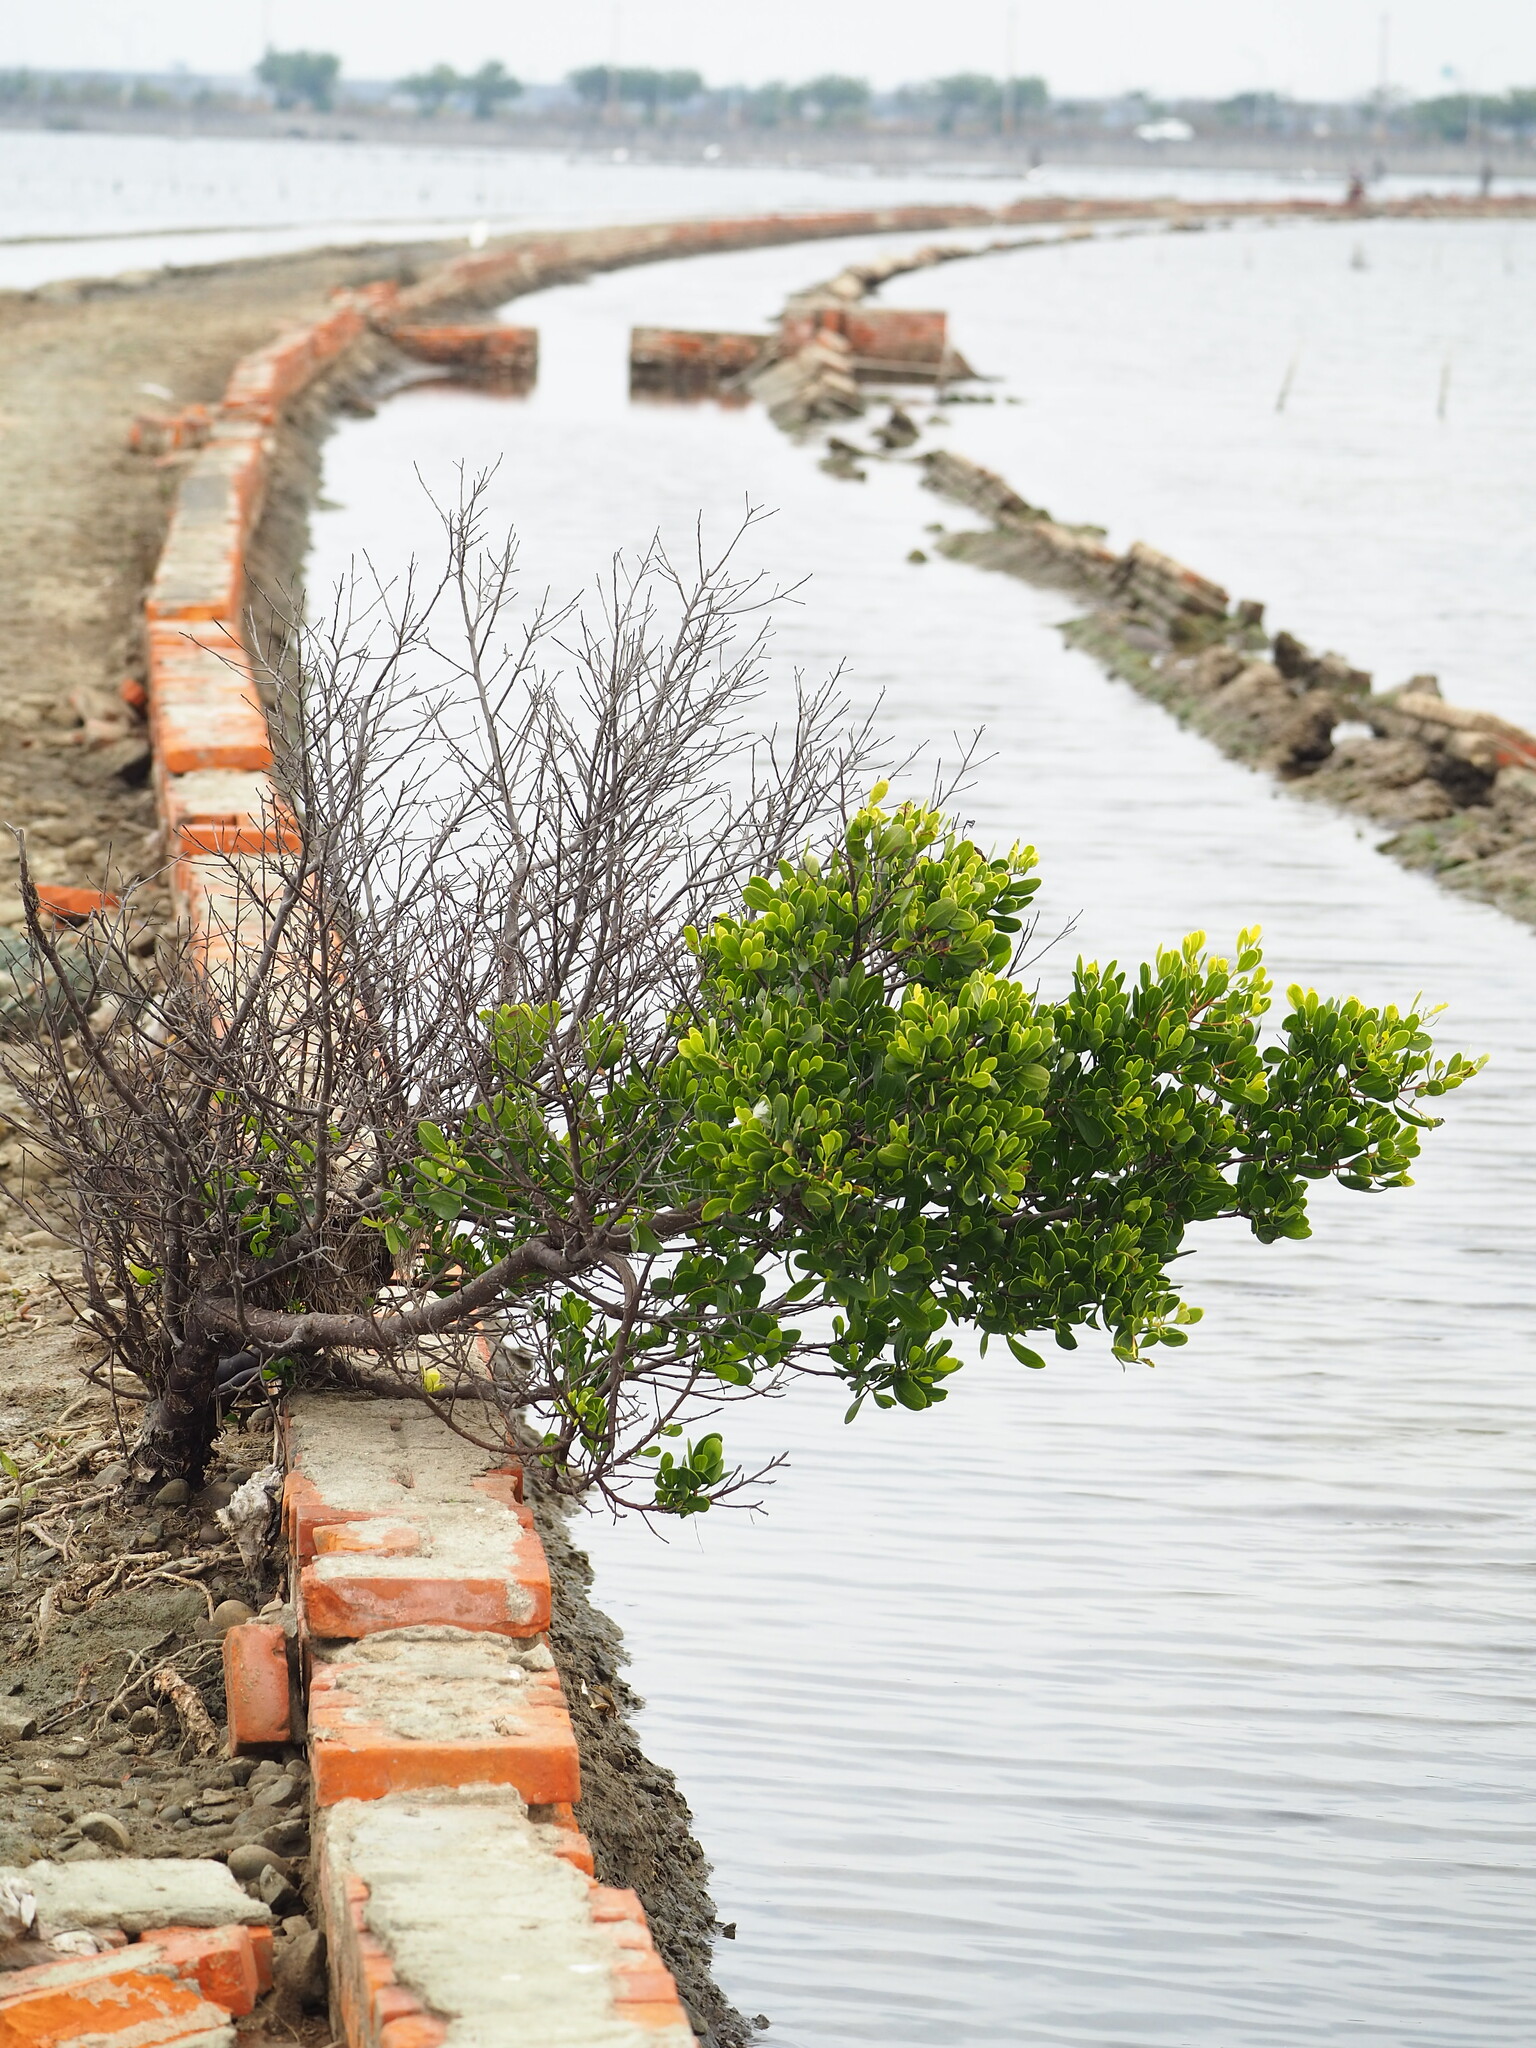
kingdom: Plantae
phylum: Tracheophyta
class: Magnoliopsida
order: Myrtales
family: Combretaceae
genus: Lumnitzera
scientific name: Lumnitzera racemosa
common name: White-flowered black mangrove
